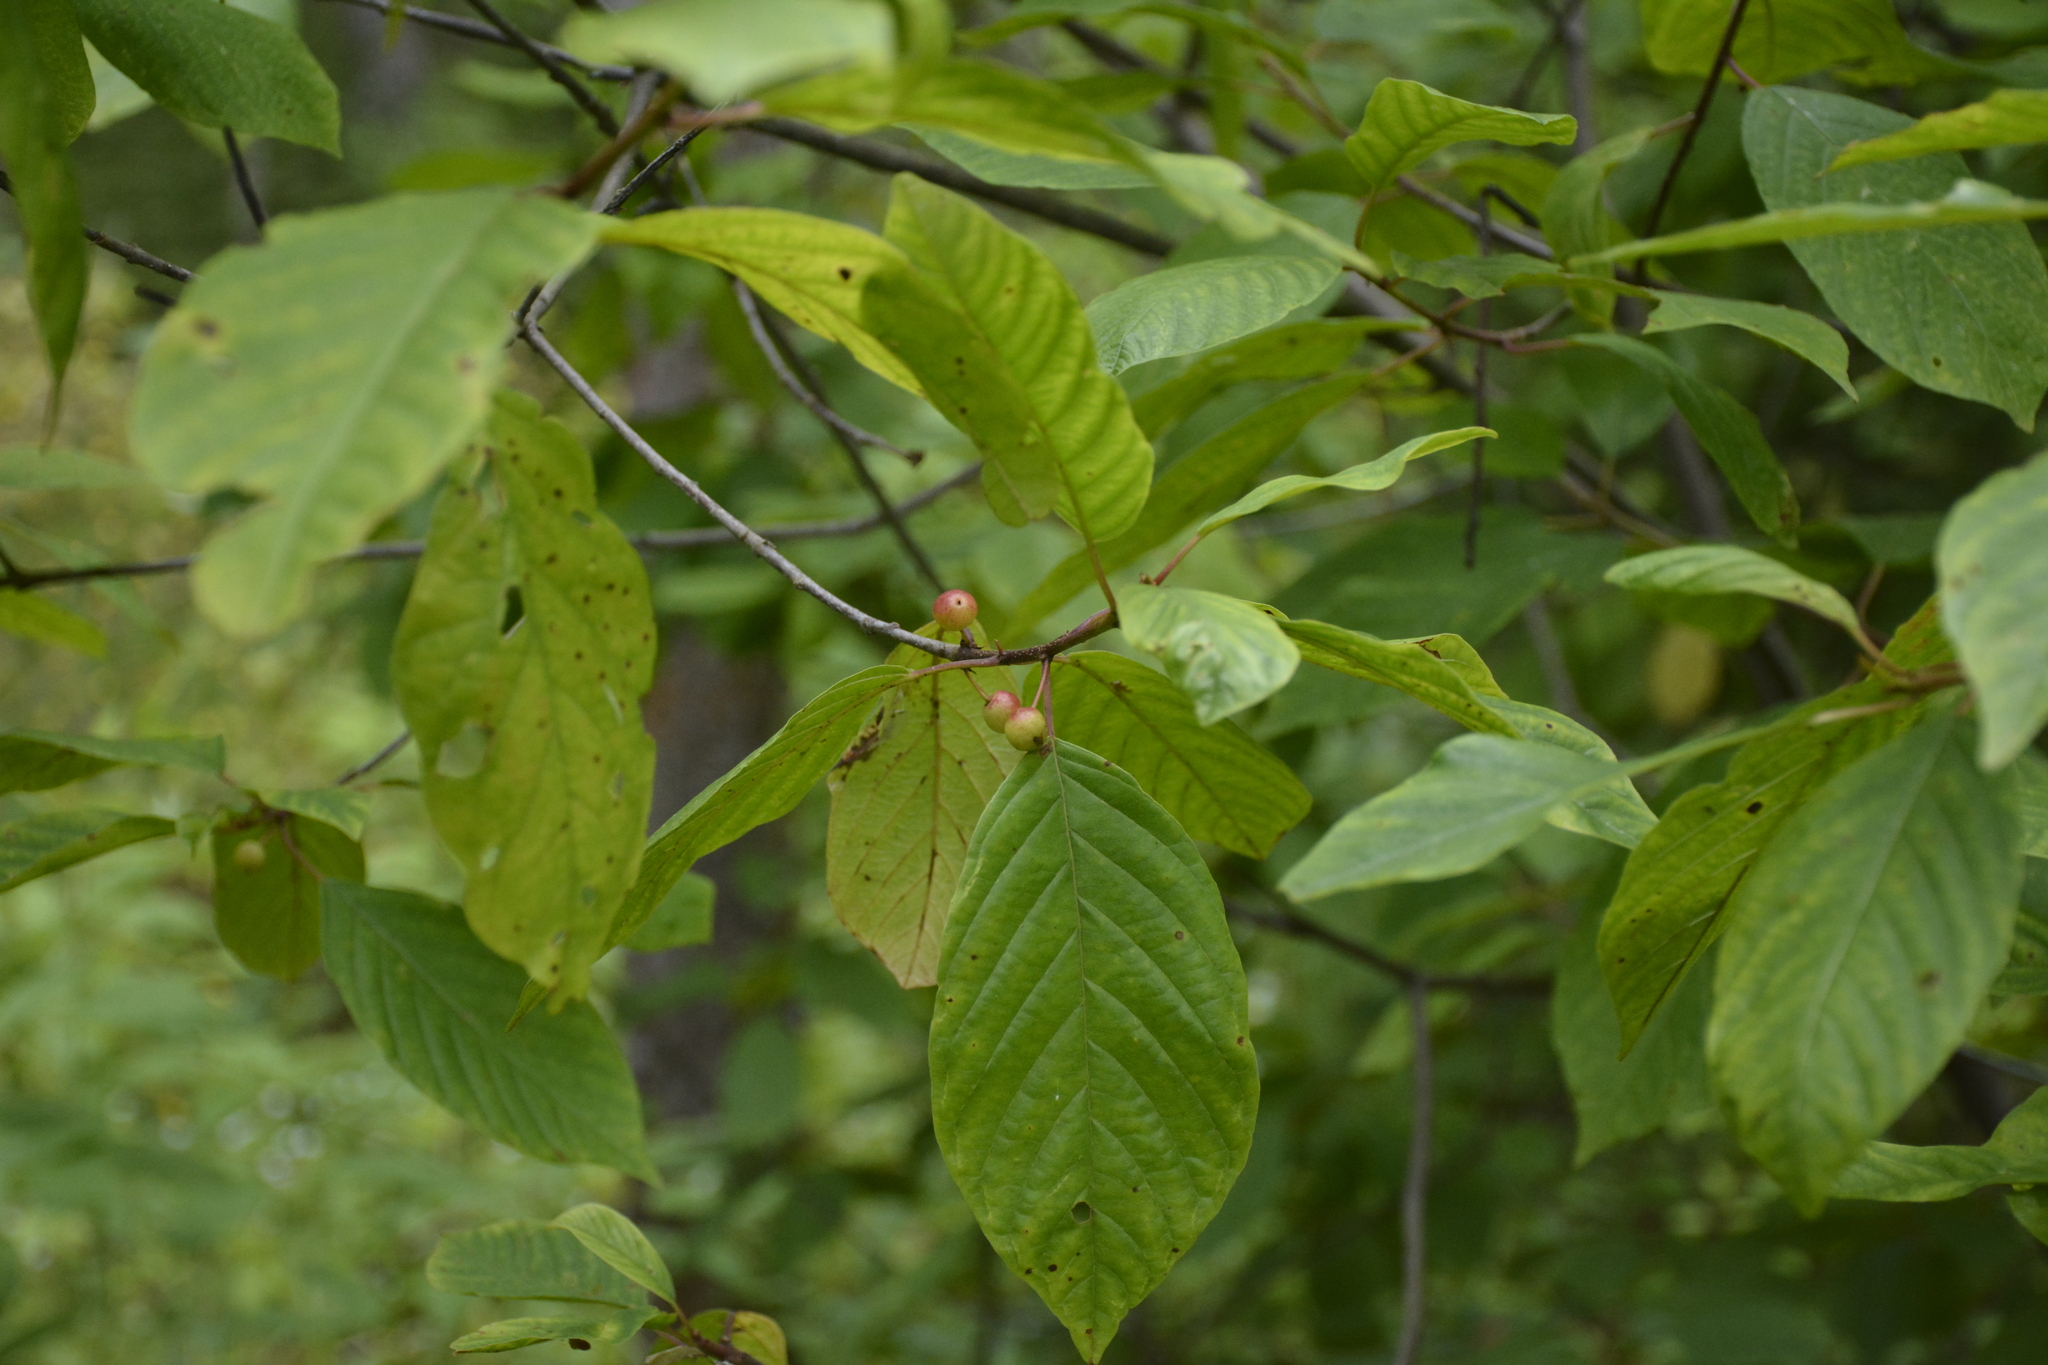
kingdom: Plantae
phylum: Tracheophyta
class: Magnoliopsida
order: Rosales
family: Rhamnaceae
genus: Frangula
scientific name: Frangula alnus
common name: Alder buckthorn
